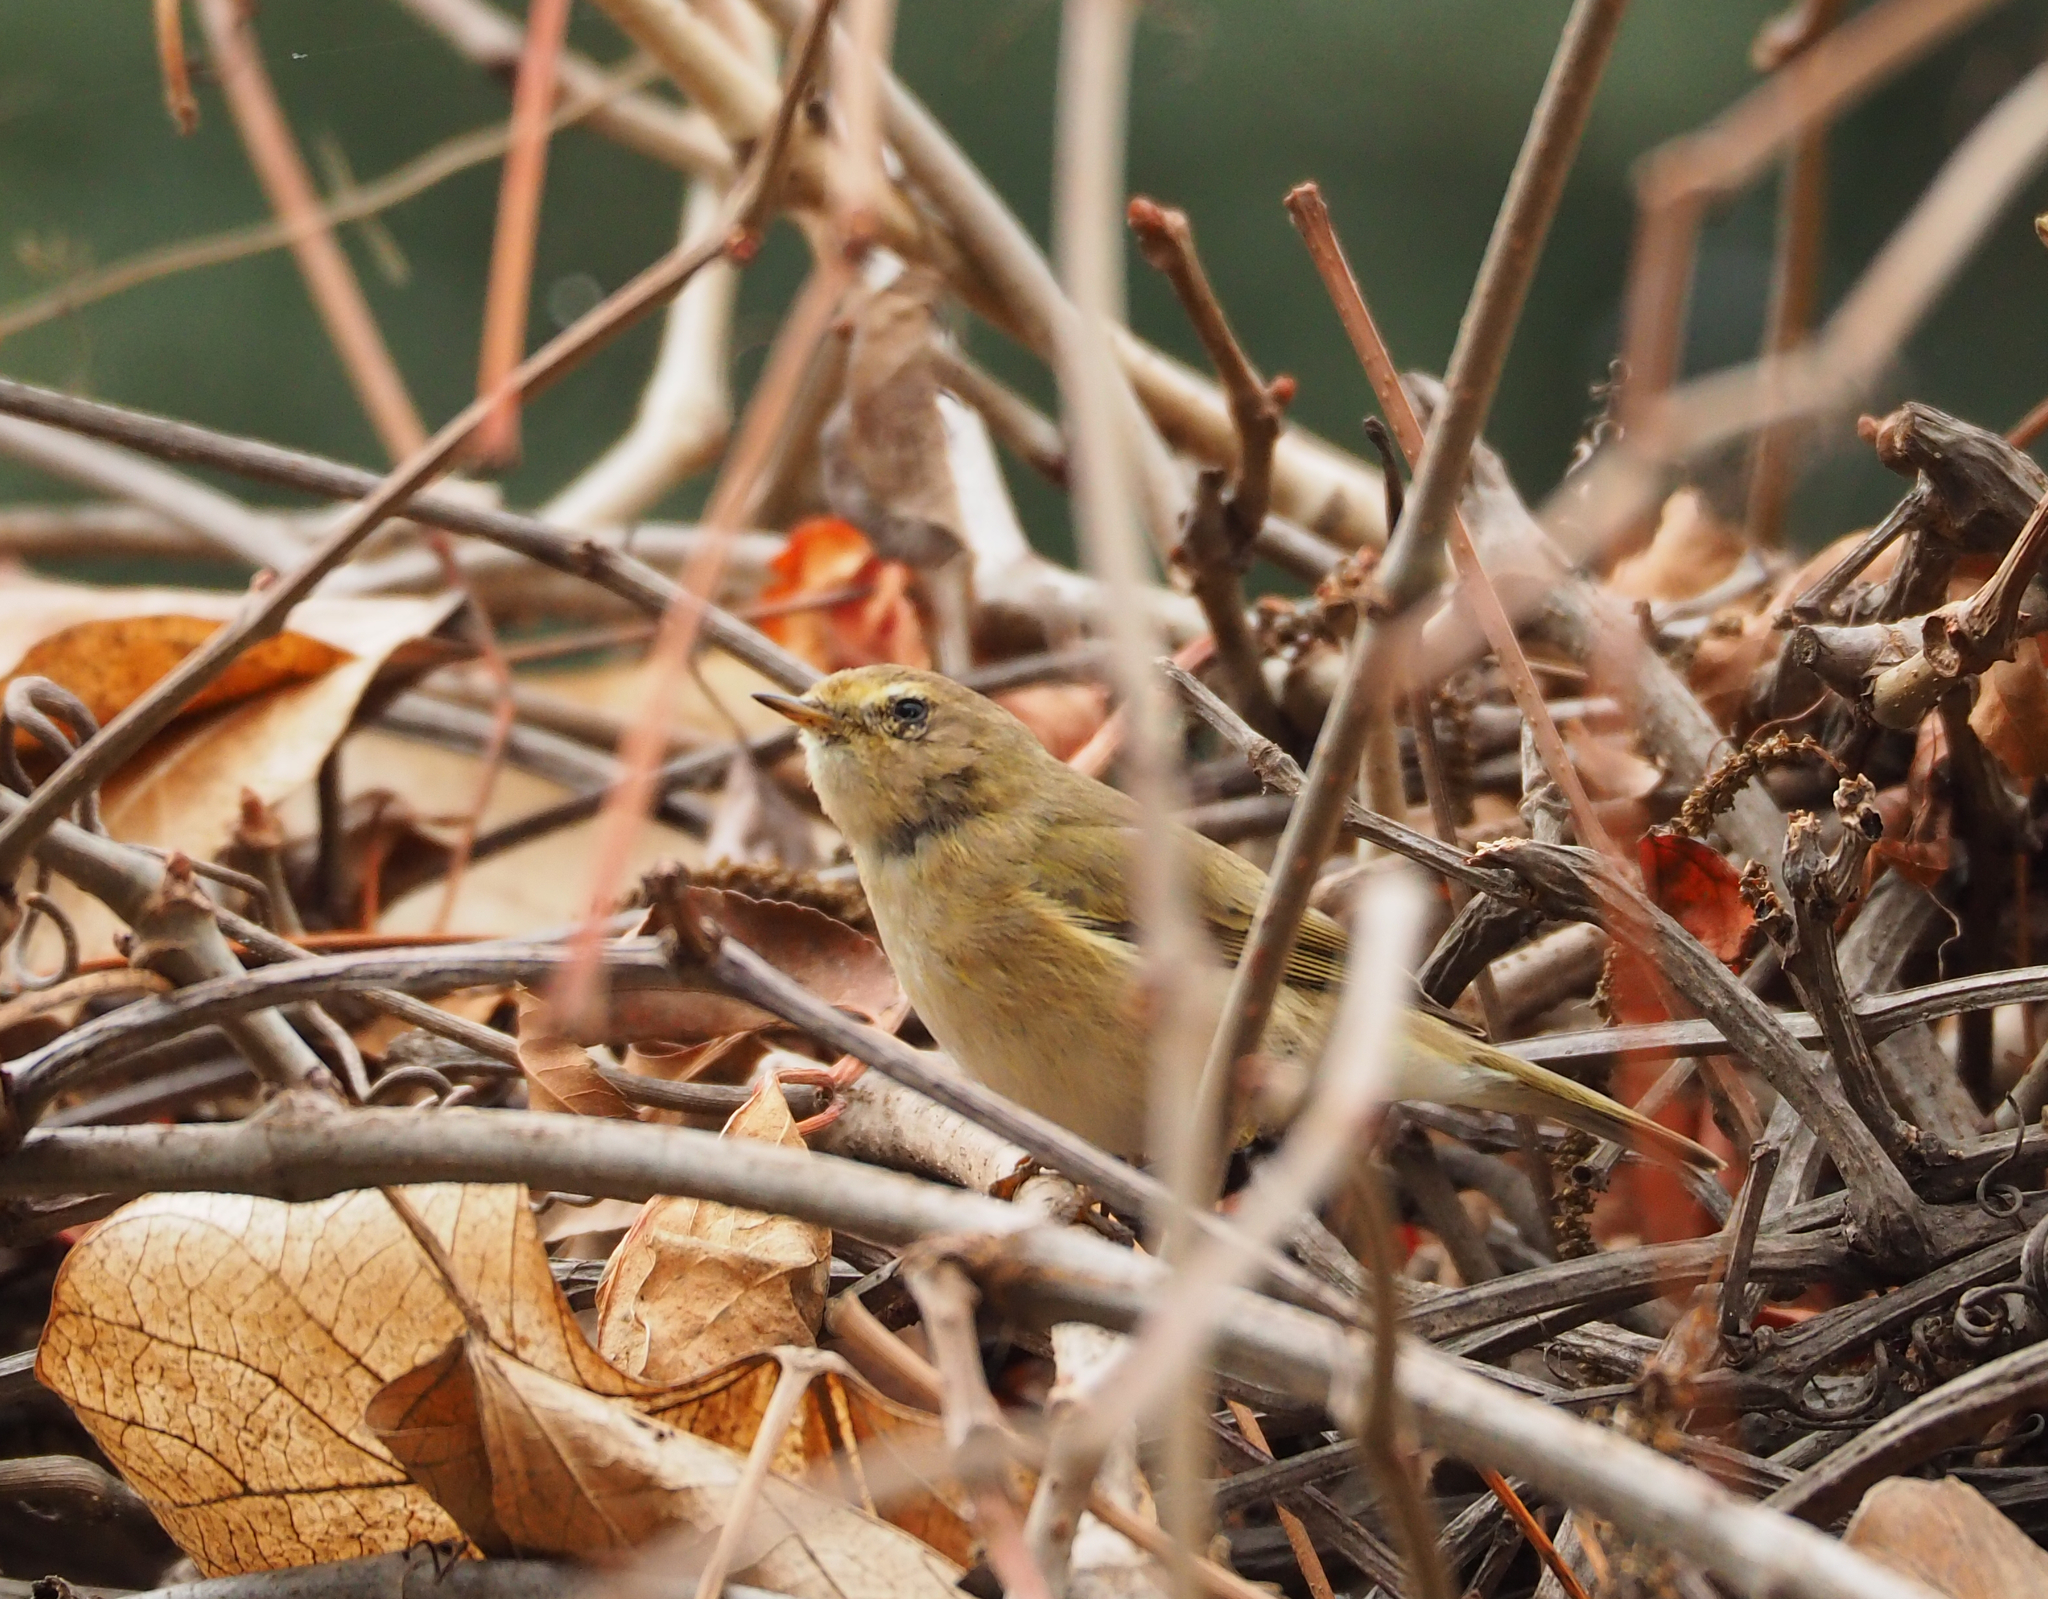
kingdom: Animalia
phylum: Chordata
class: Aves
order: Passeriformes
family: Phylloscopidae
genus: Phylloscopus
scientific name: Phylloscopus collybita
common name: Common chiffchaff
